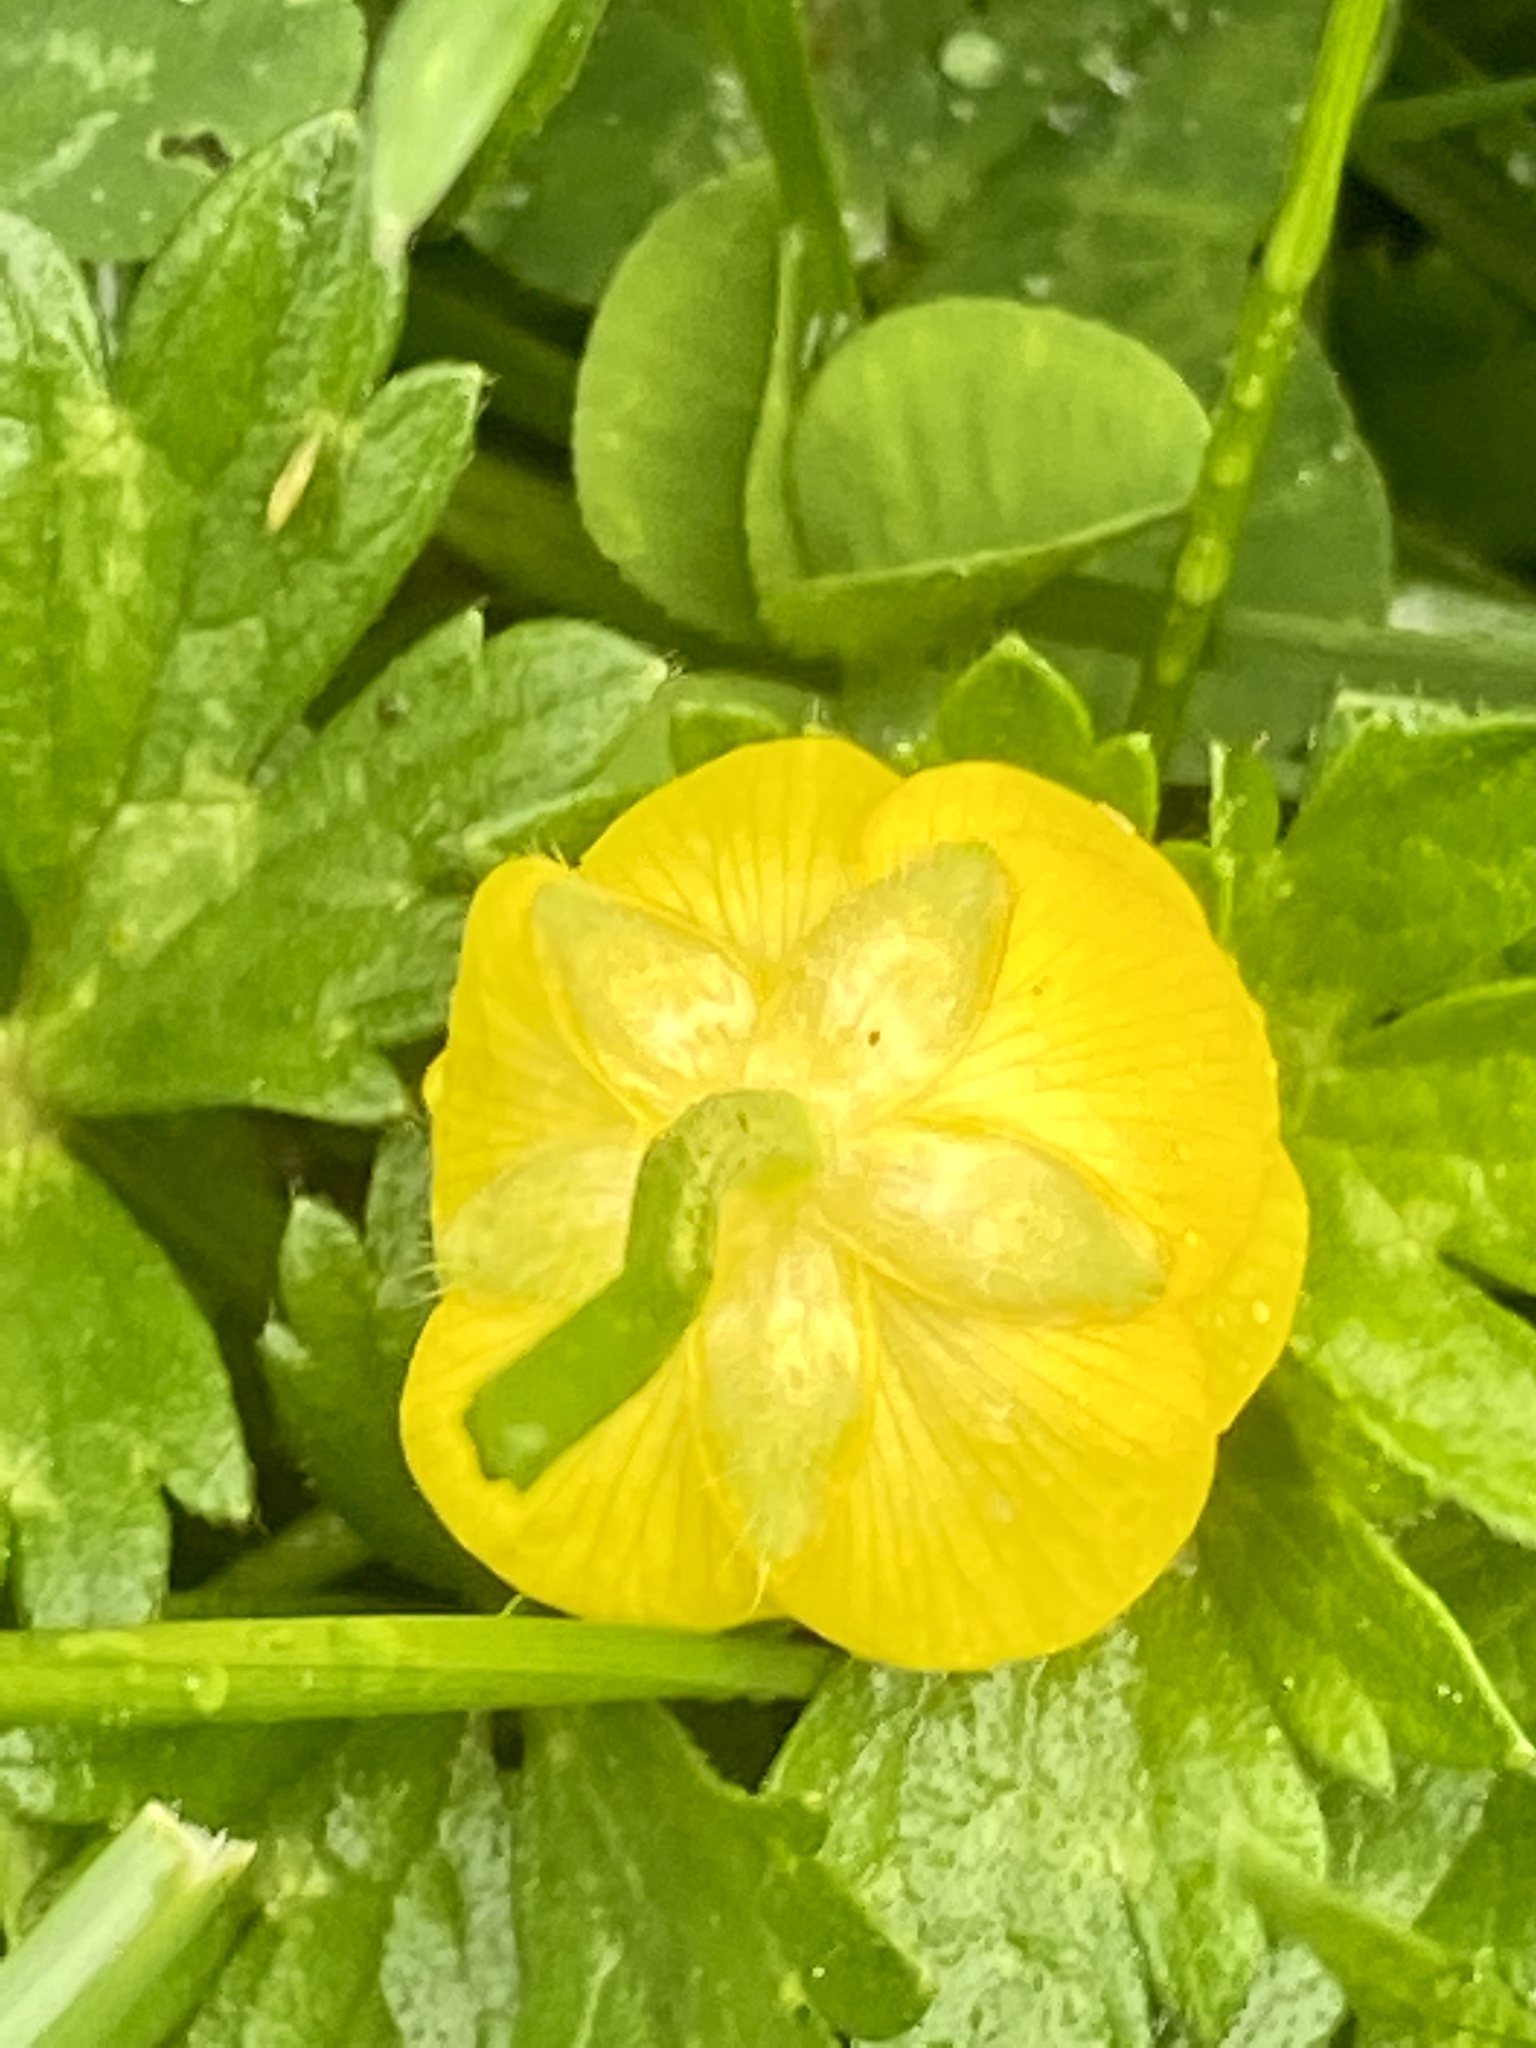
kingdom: Plantae
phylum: Tracheophyta
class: Magnoliopsida
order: Ranunculales
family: Ranunculaceae
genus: Ranunculus
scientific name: Ranunculus repens
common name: Creeping buttercup
